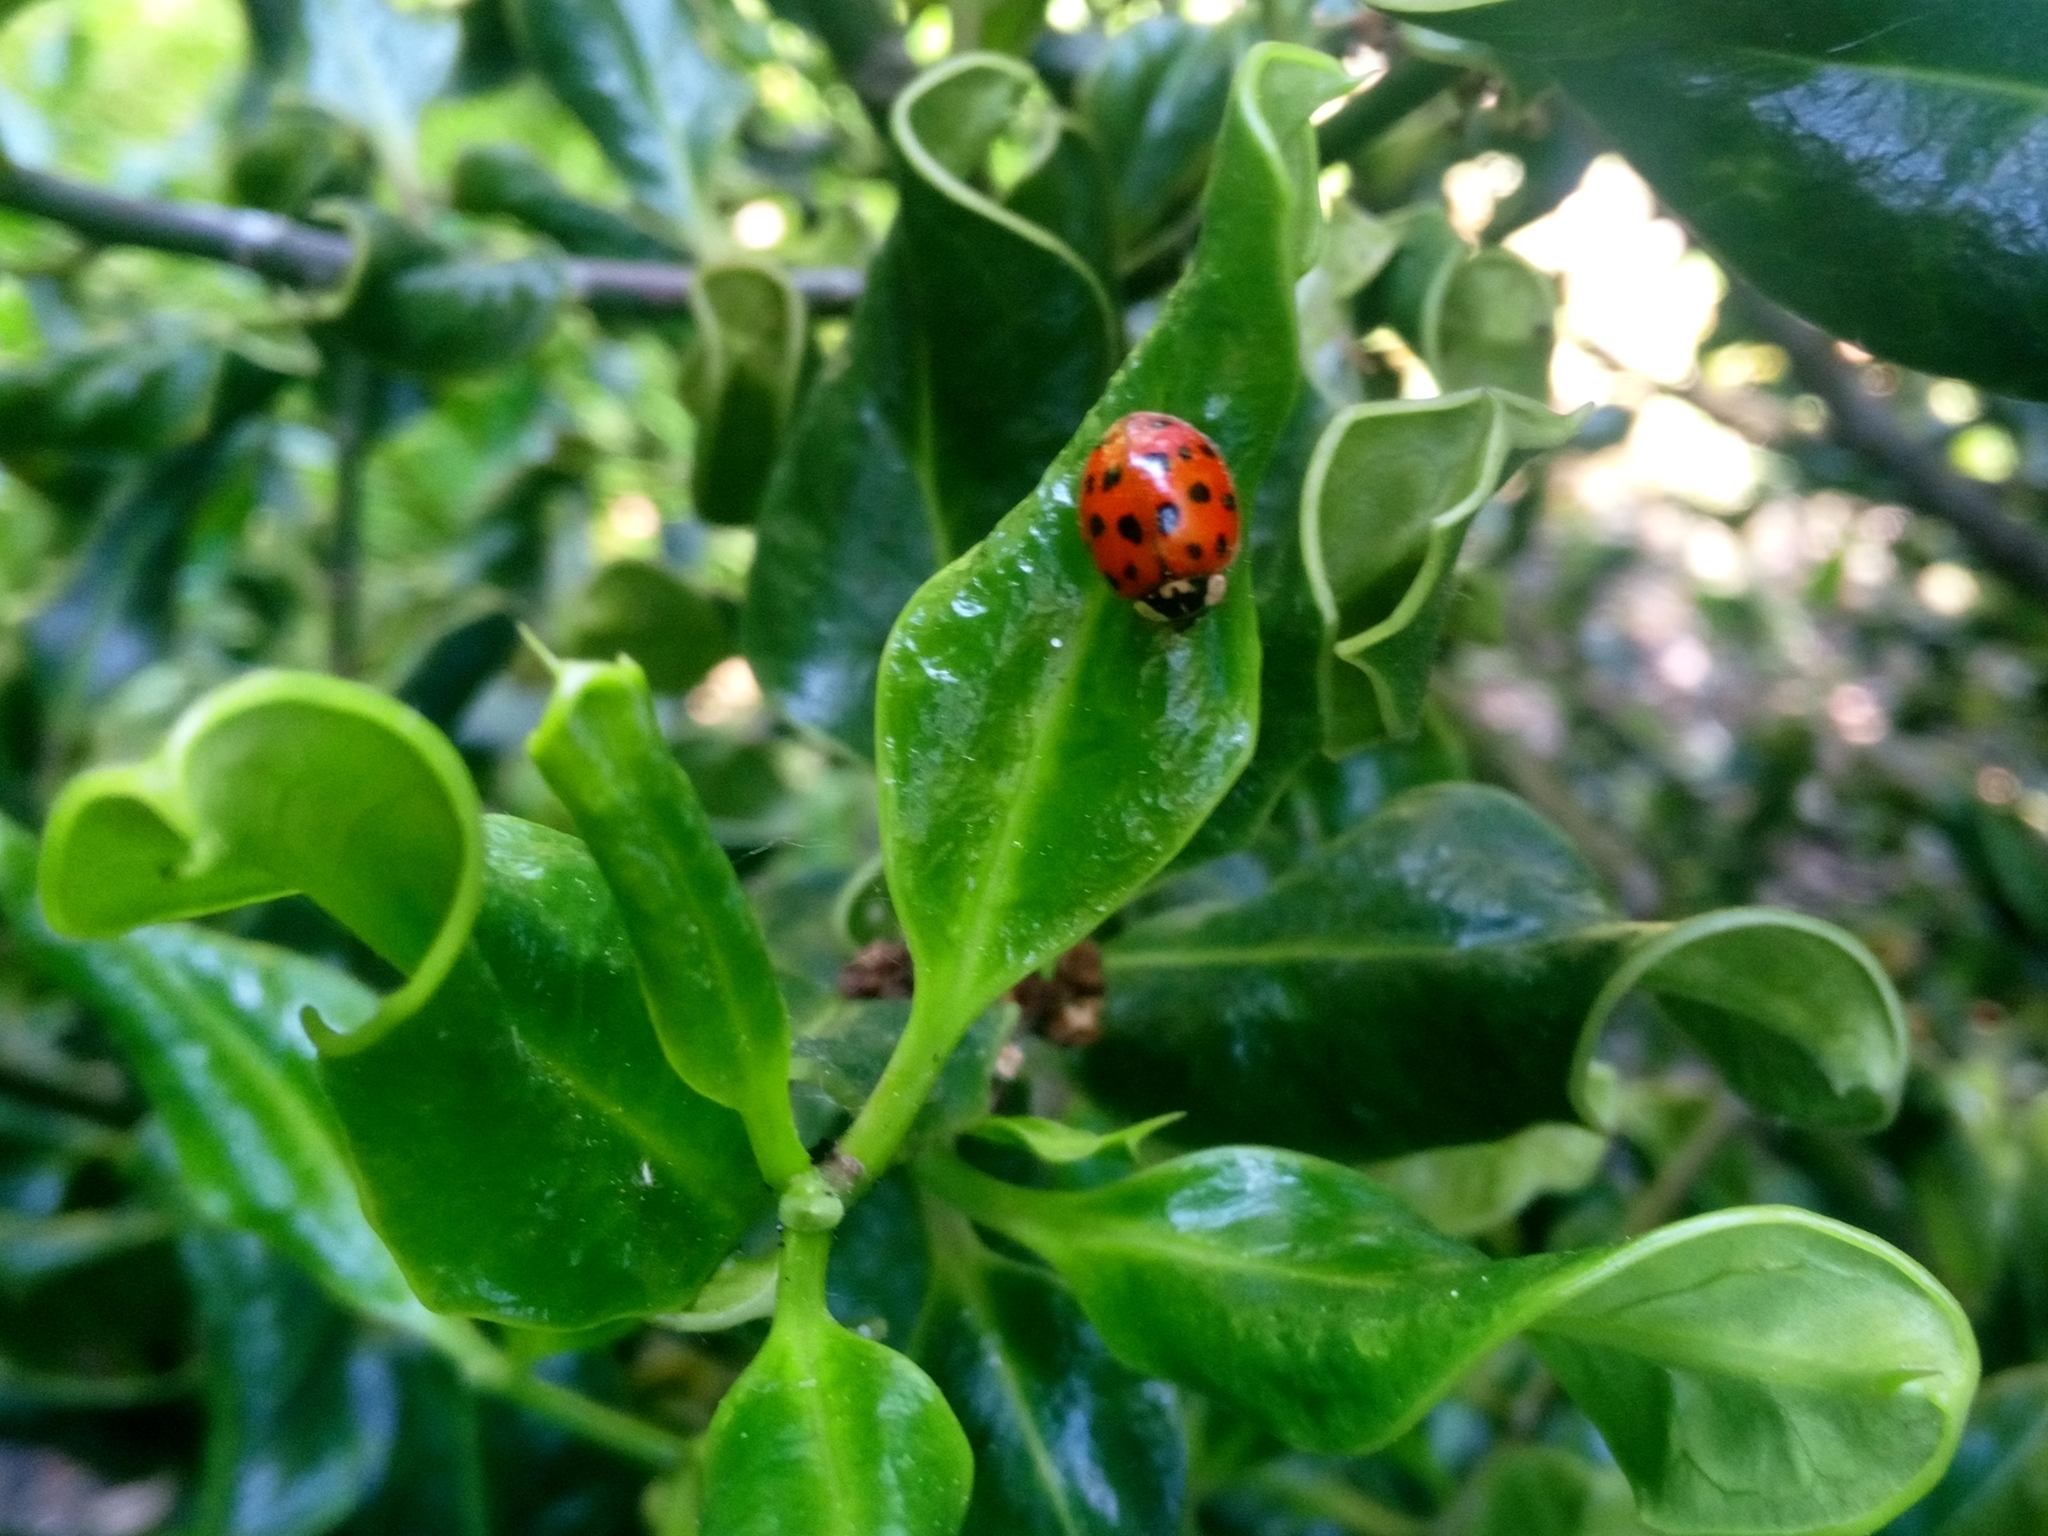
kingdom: Animalia
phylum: Arthropoda
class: Insecta
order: Coleoptera
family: Coccinellidae
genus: Harmonia
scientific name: Harmonia axyridis
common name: Harlequin ladybird
